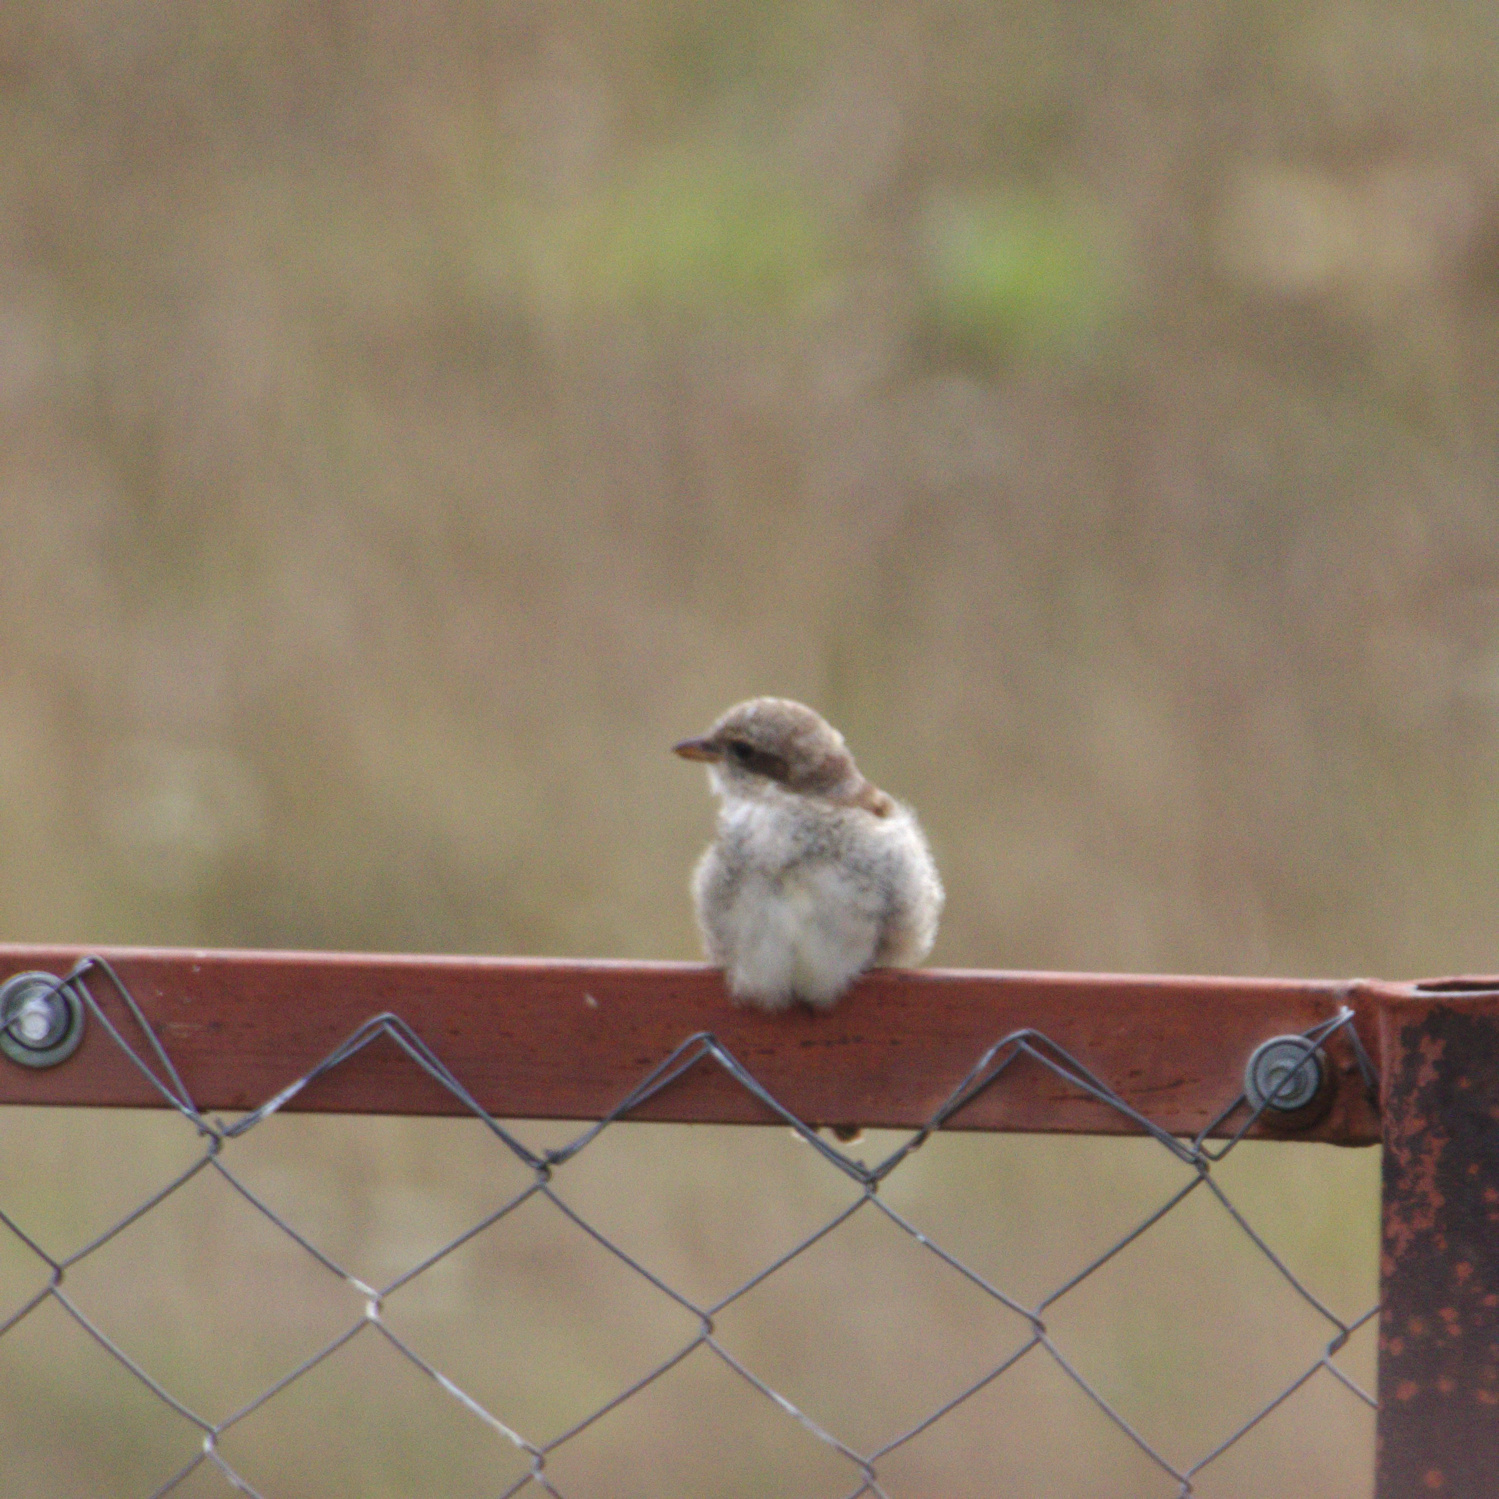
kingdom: Animalia
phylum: Chordata
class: Aves
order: Passeriformes
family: Laniidae
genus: Lanius
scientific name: Lanius collurio
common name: Red-backed shrike
